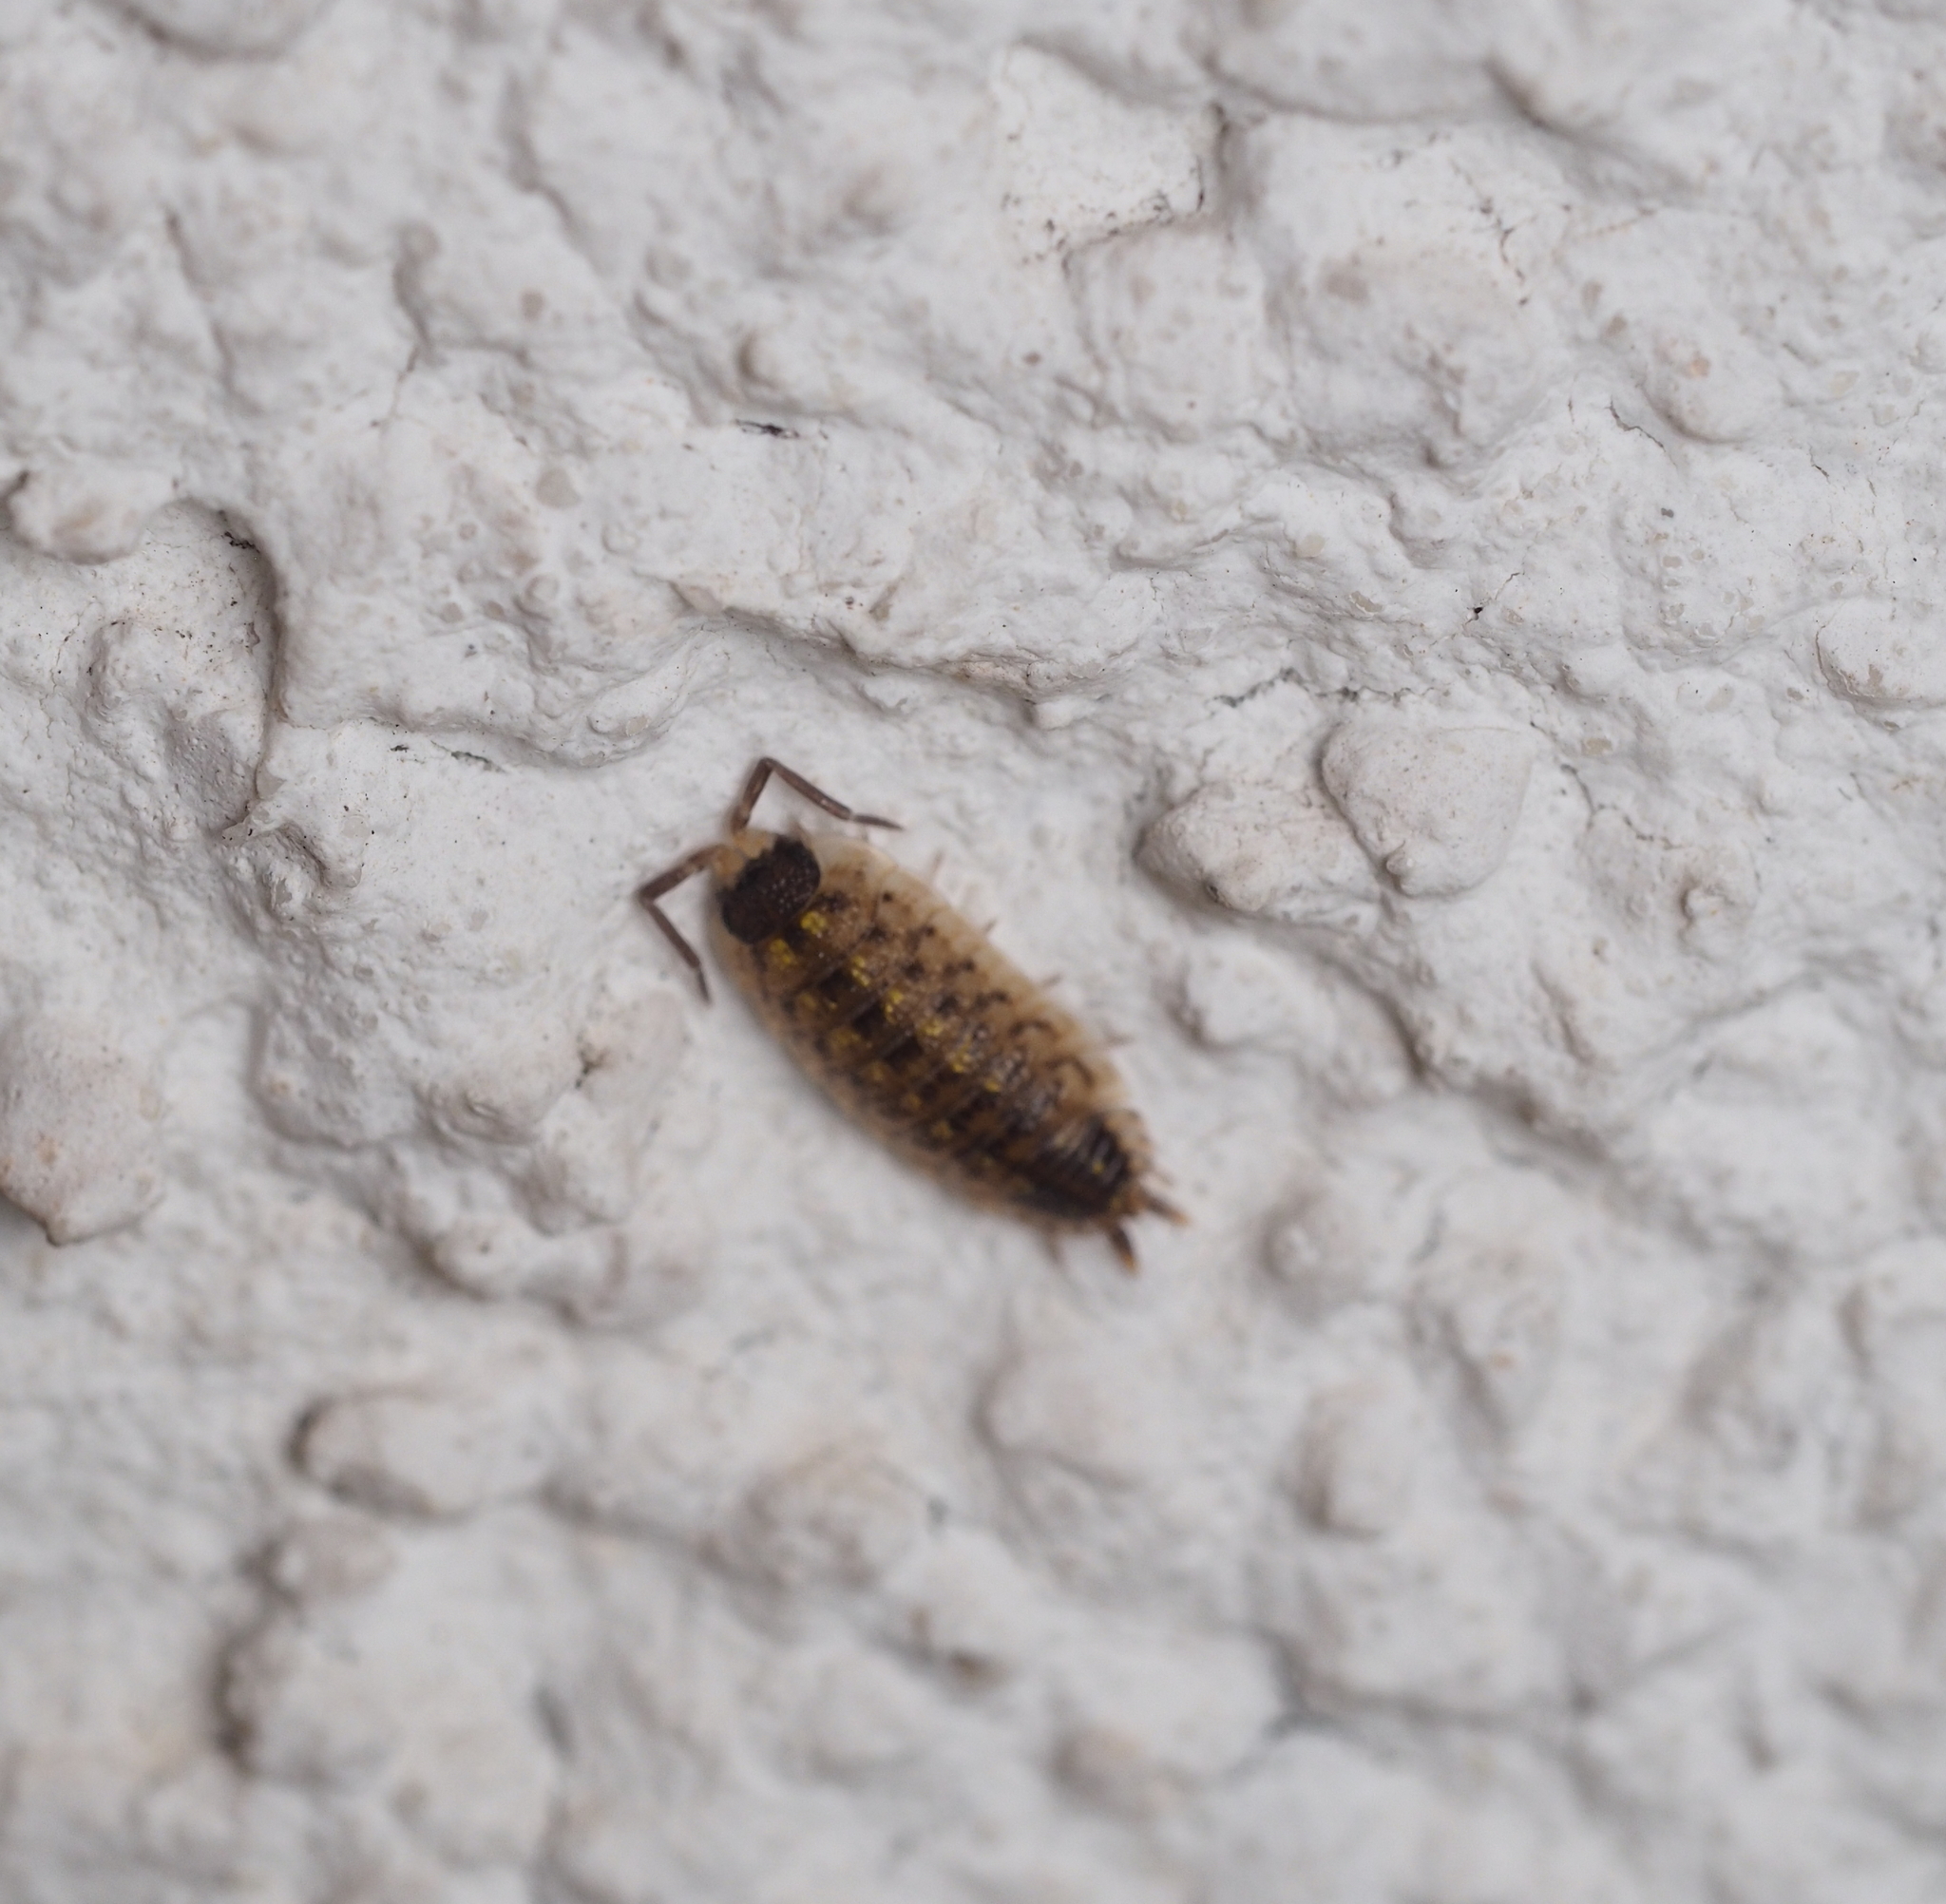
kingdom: Animalia
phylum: Arthropoda
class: Malacostraca
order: Isopoda
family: Porcellionidae
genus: Porcellio
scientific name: Porcellio spinicornis
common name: Painted woodlouse
